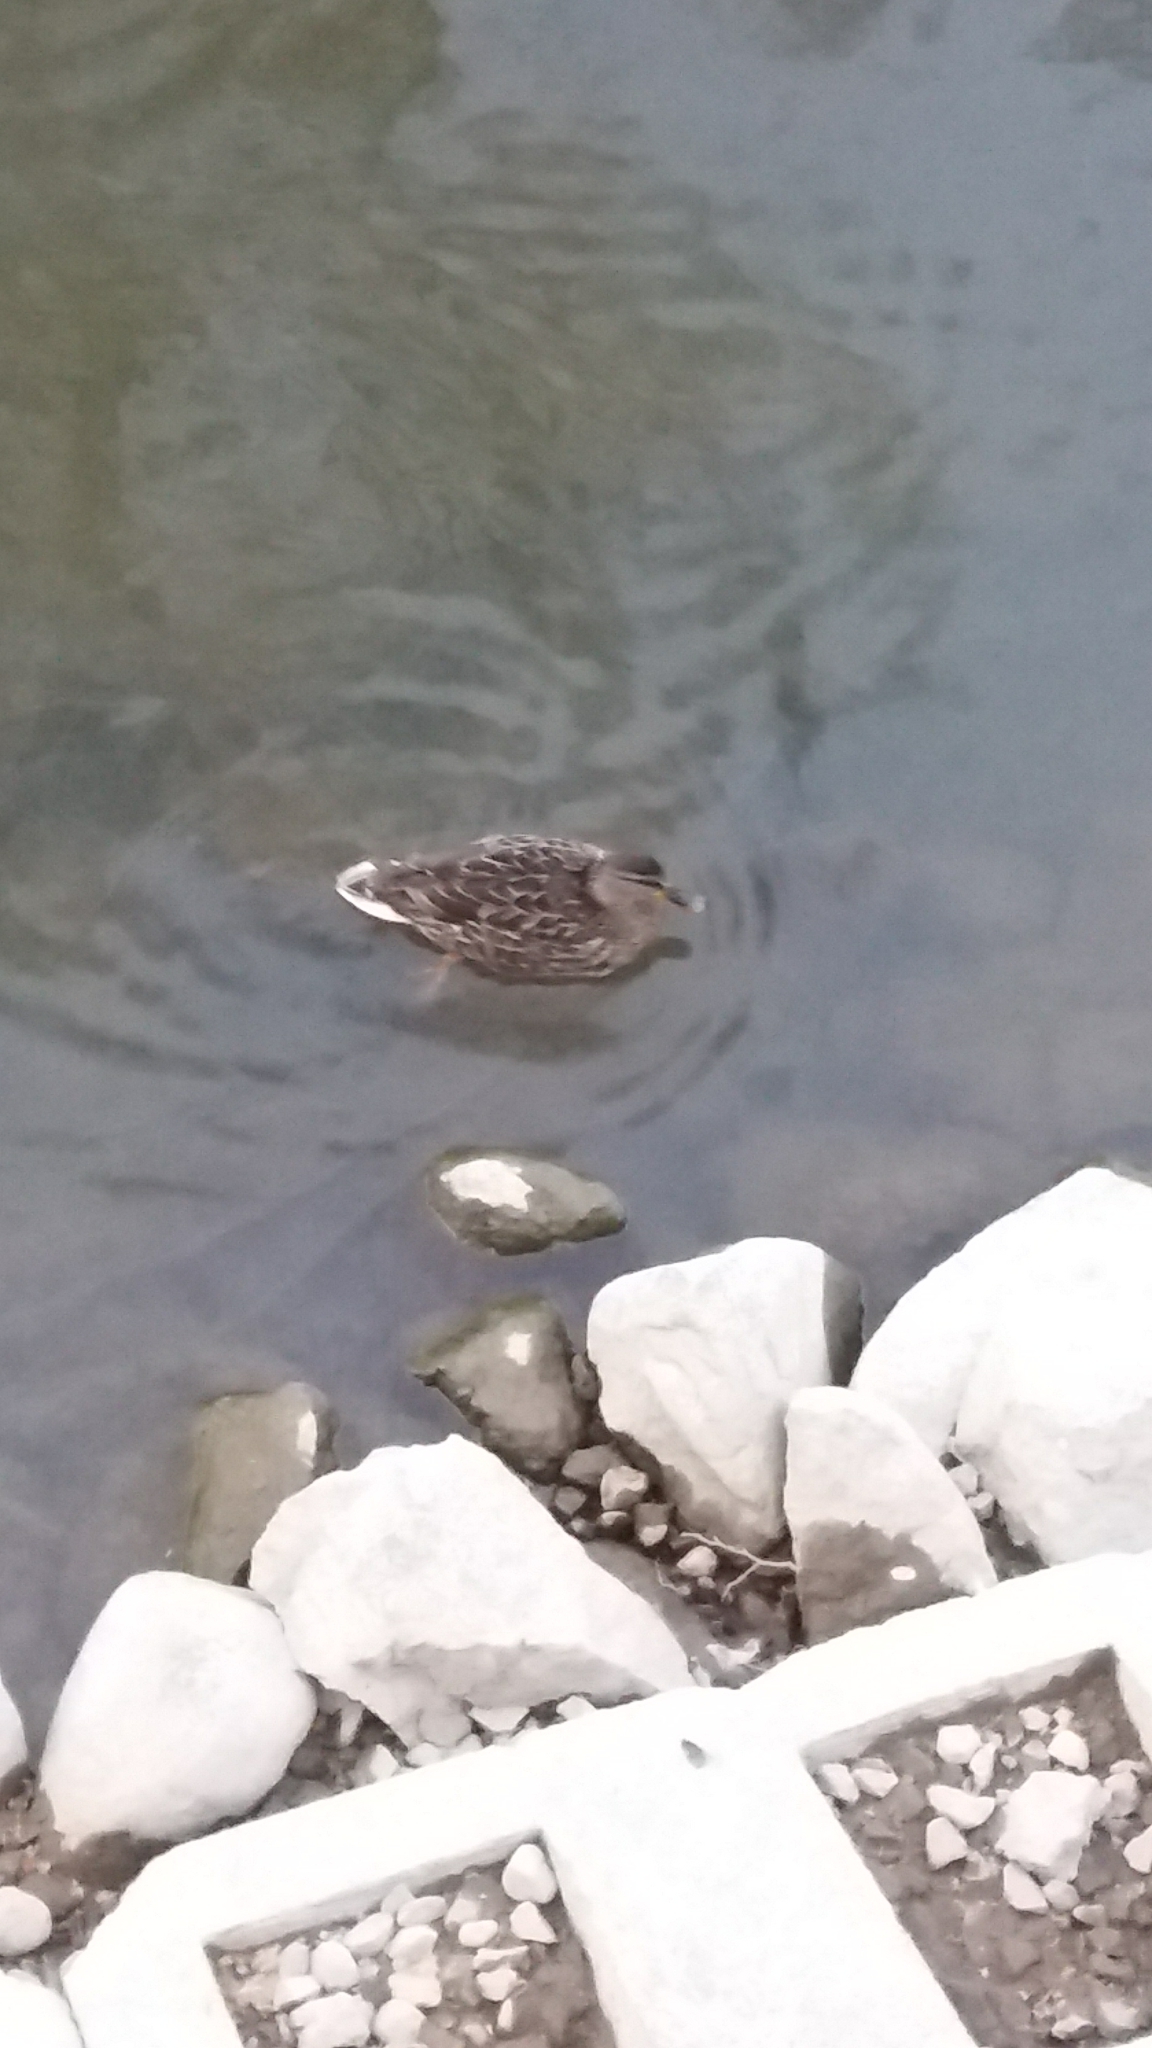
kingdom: Animalia
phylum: Chordata
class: Aves
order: Anseriformes
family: Anatidae
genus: Anas
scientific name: Anas platyrhynchos
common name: Mallard
